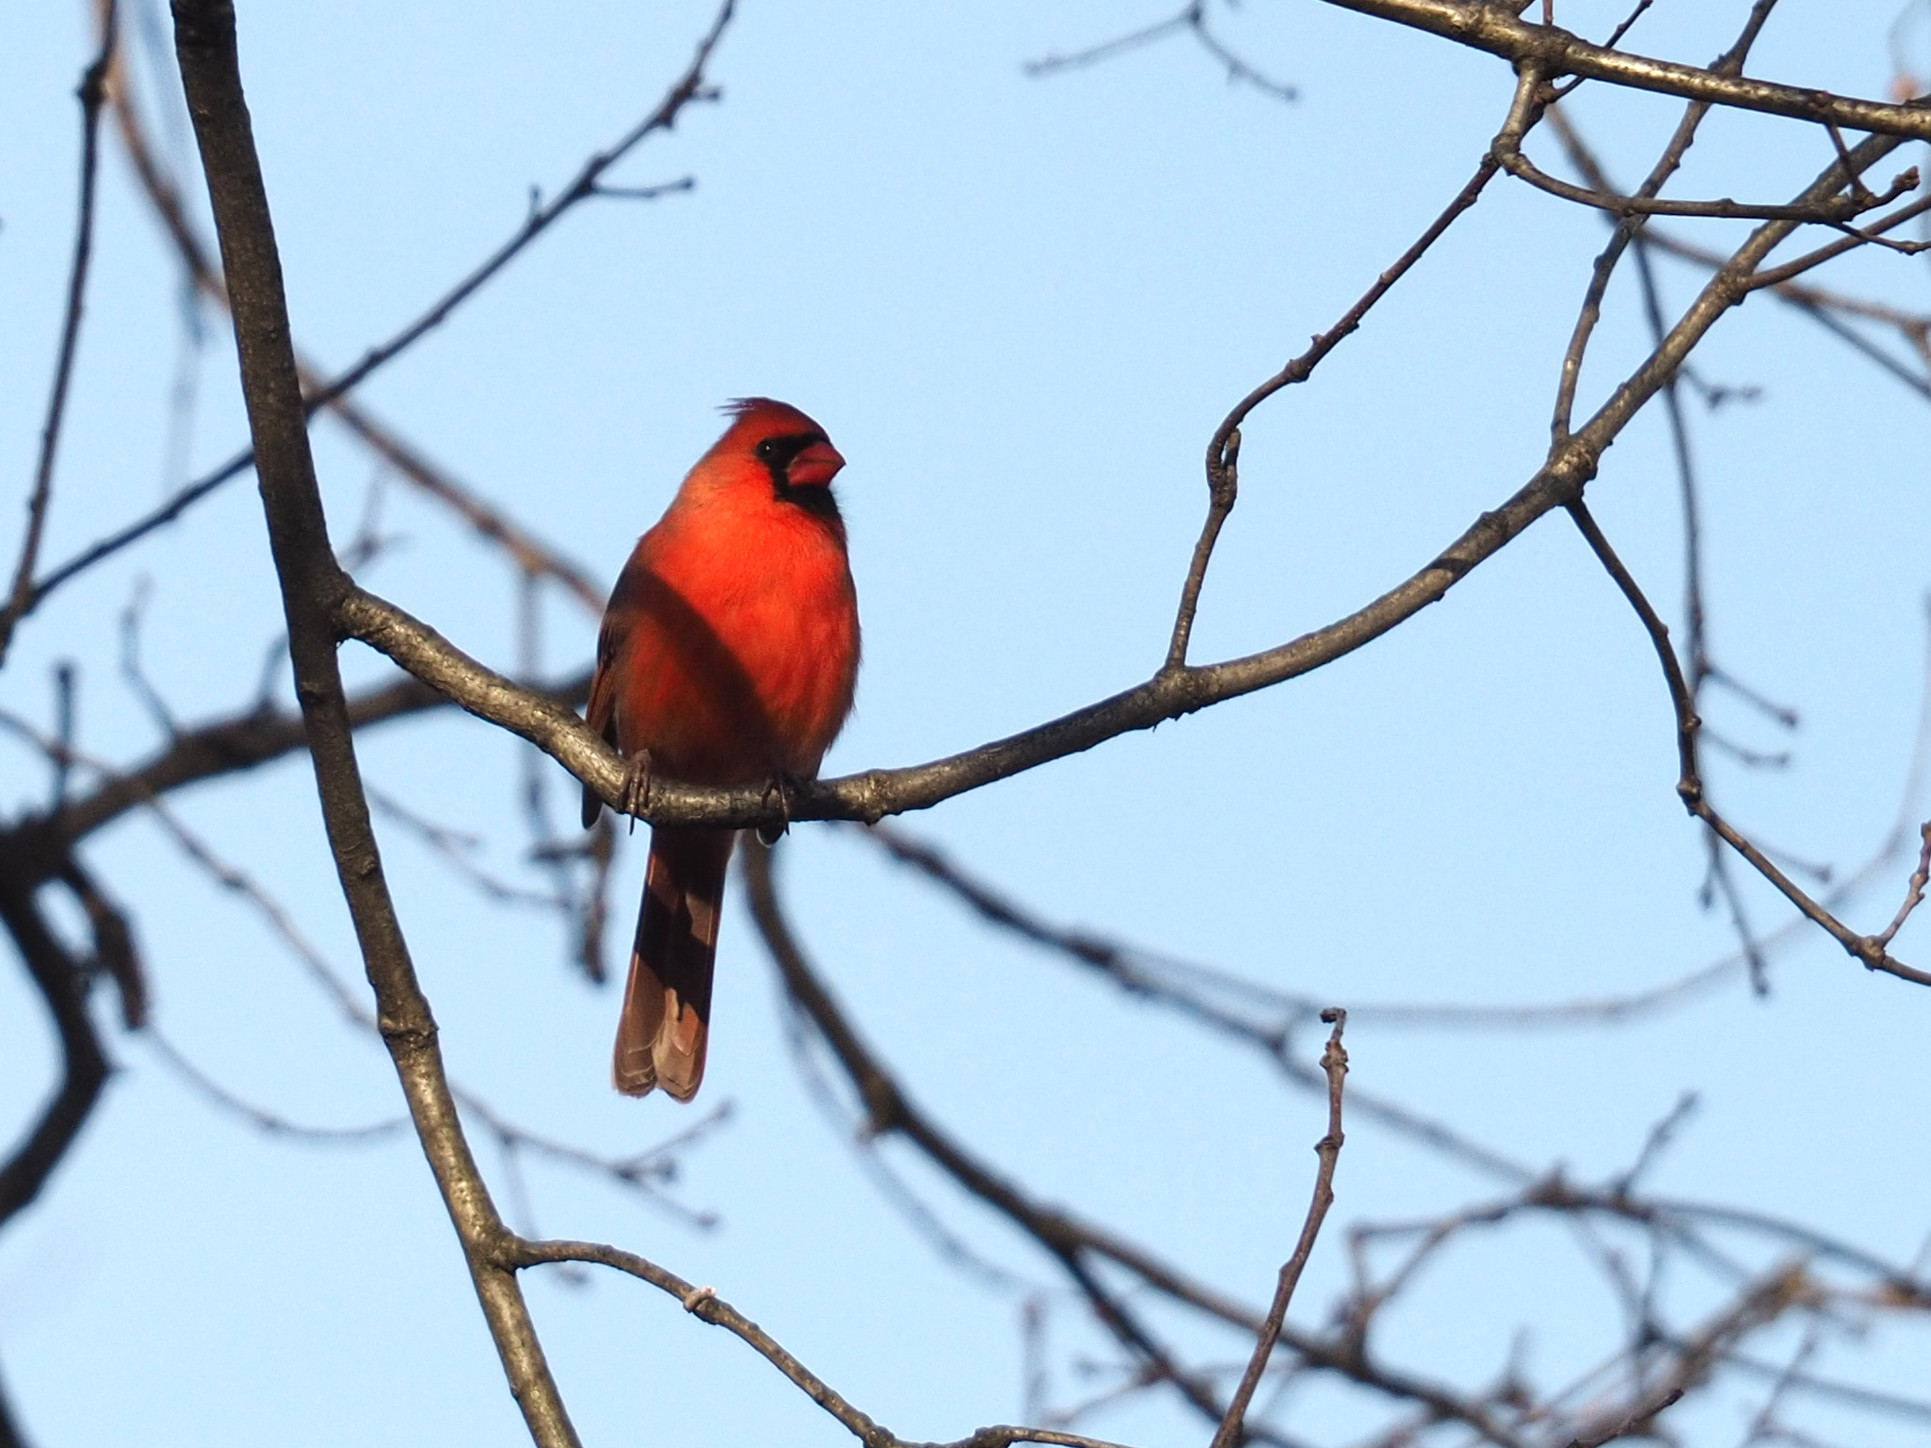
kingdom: Animalia
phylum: Chordata
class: Aves
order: Passeriformes
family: Cardinalidae
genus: Cardinalis
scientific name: Cardinalis cardinalis
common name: Northern cardinal
